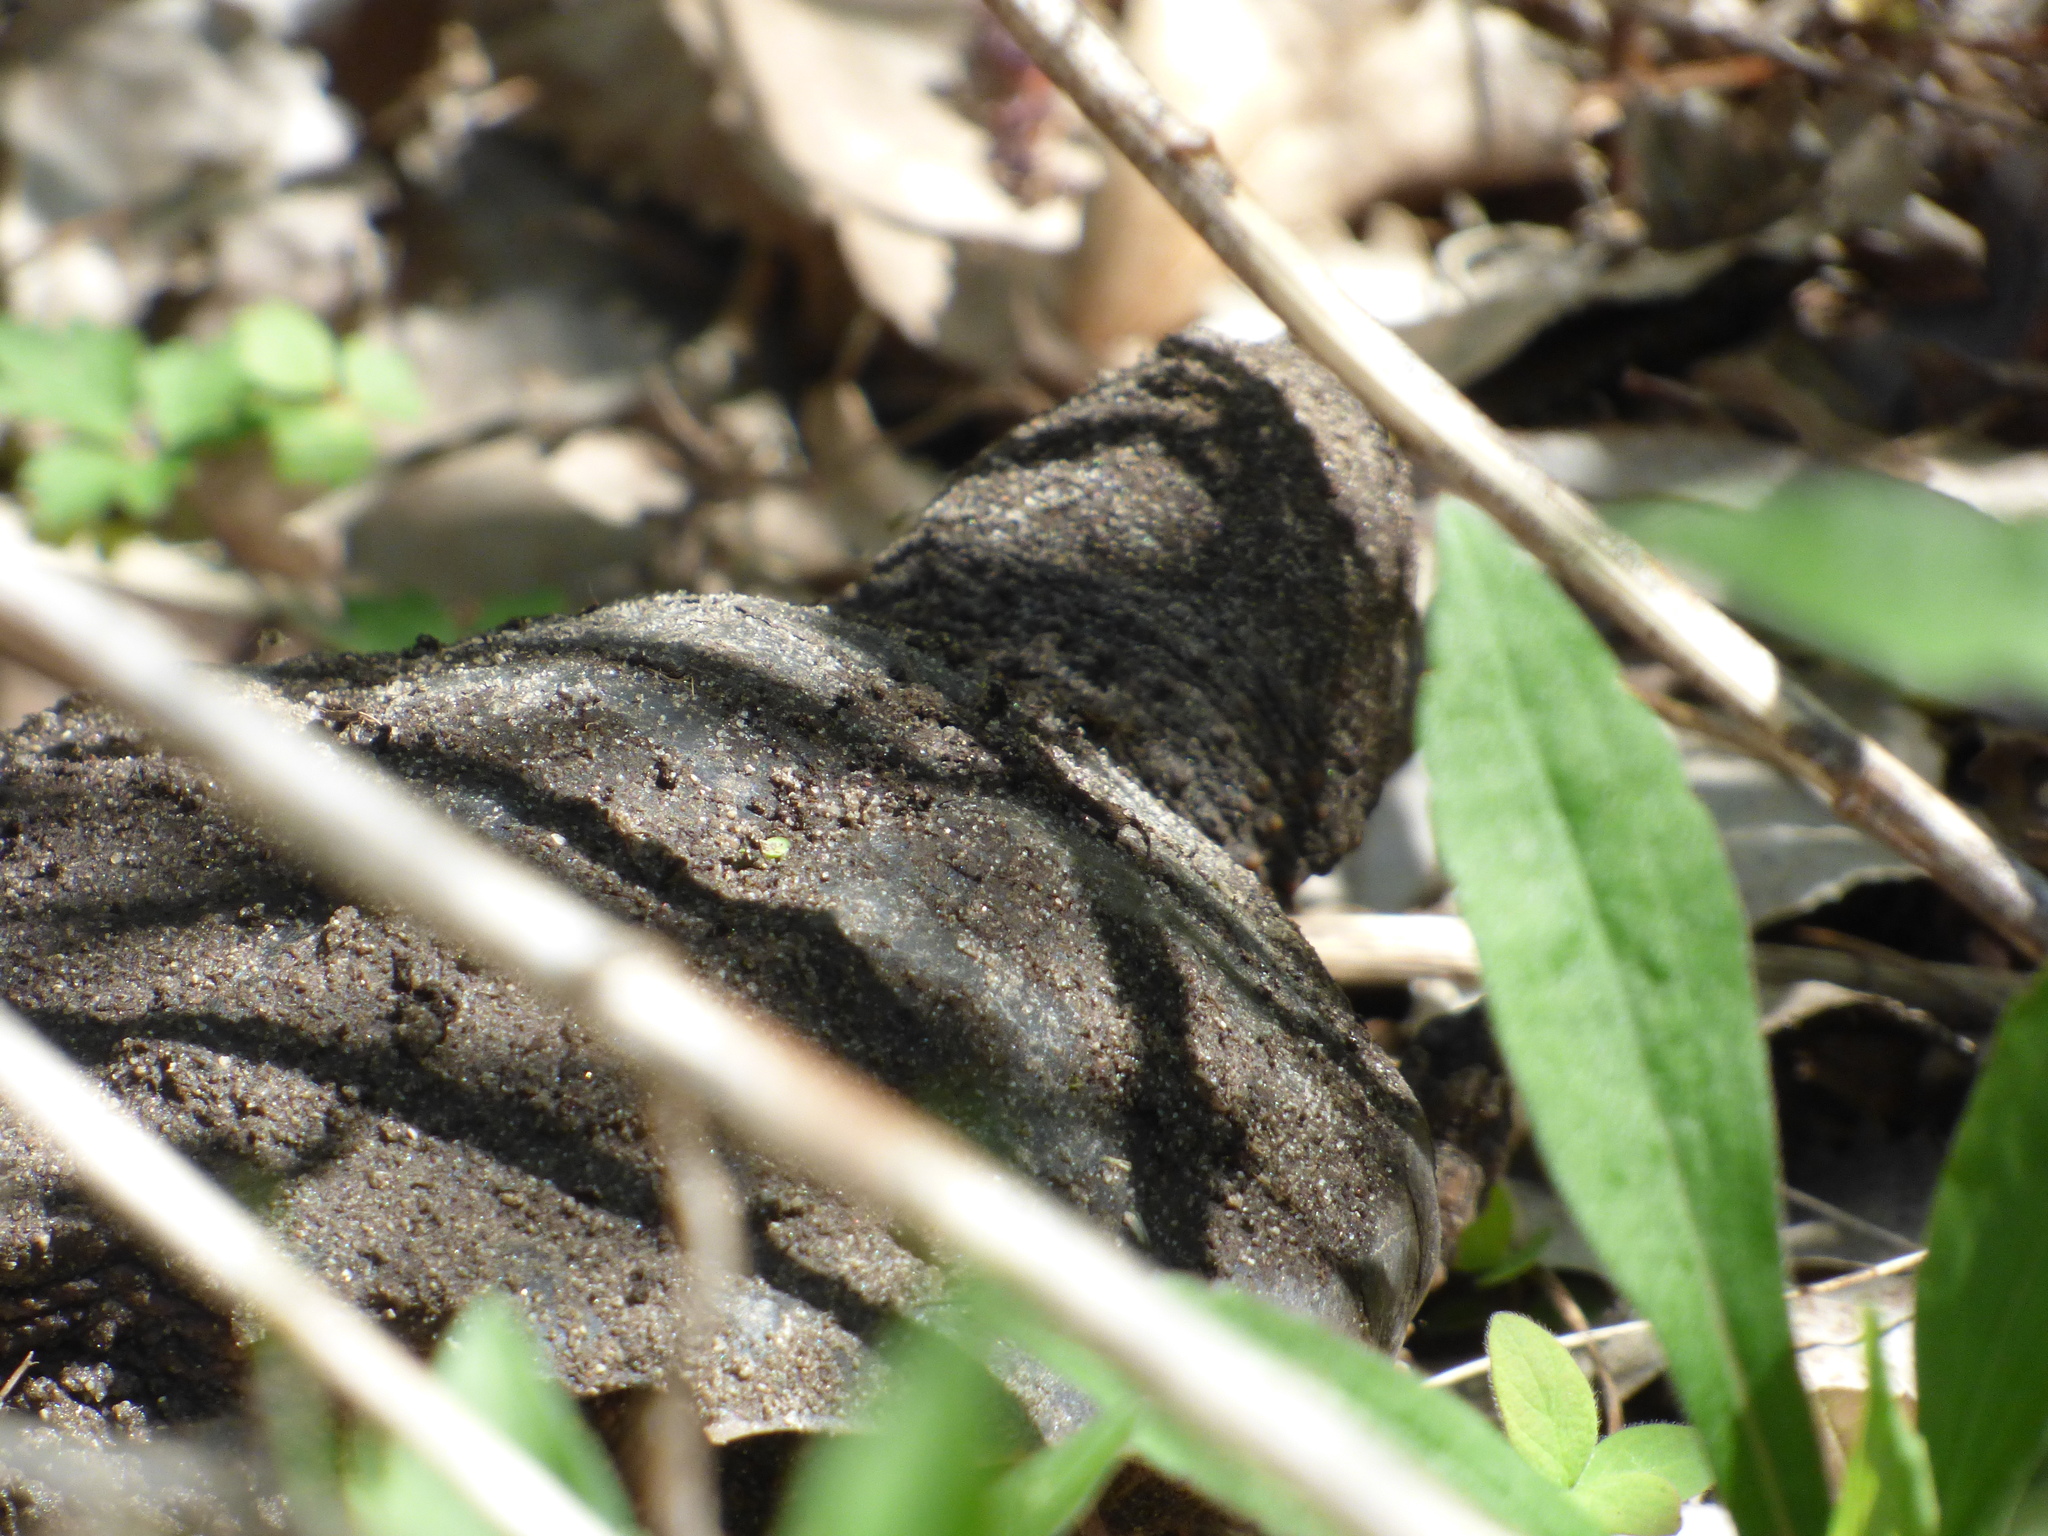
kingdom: Animalia
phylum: Chordata
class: Testudines
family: Chelydridae
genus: Chelydra
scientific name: Chelydra serpentina
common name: Common snapping turtle
